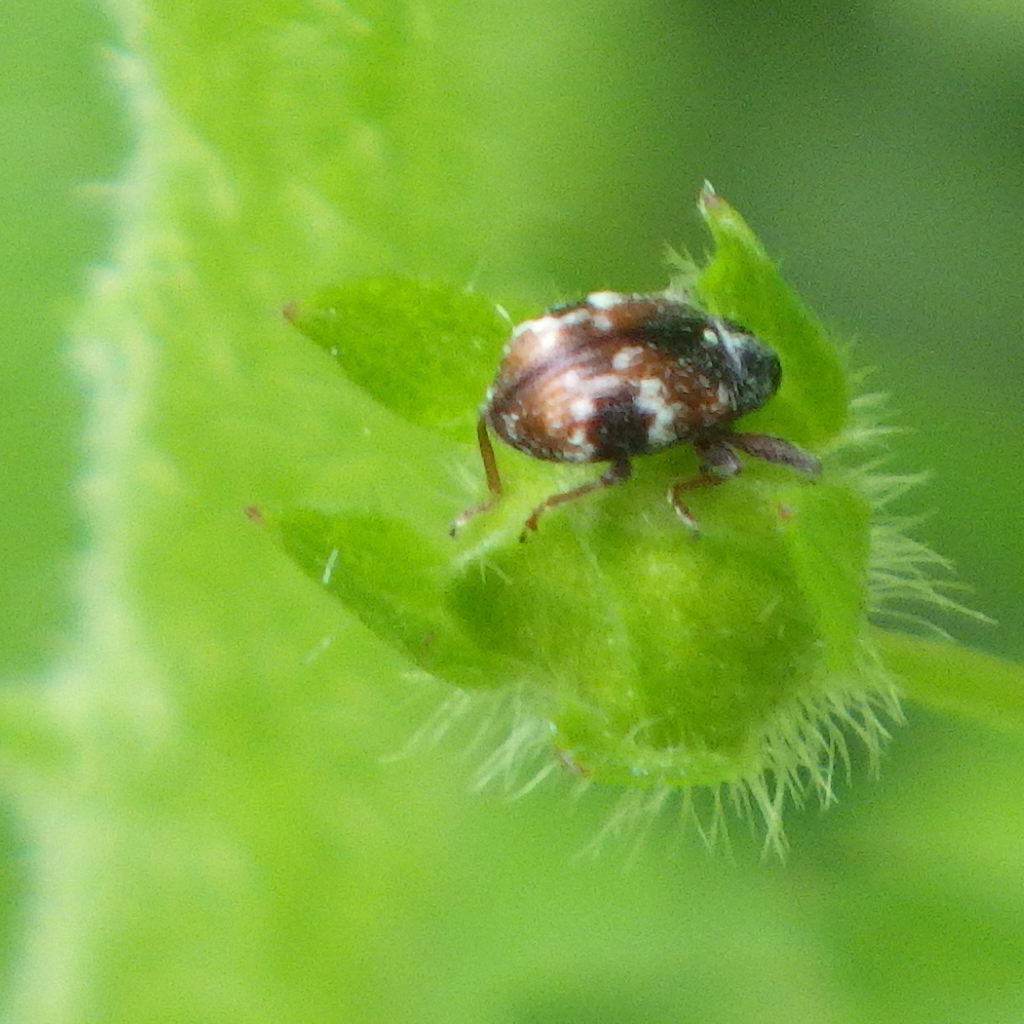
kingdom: Animalia
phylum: Arthropoda
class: Insecta
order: Coleoptera
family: Curculionidae
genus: Anthonomus
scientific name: Anthonomus signatus
